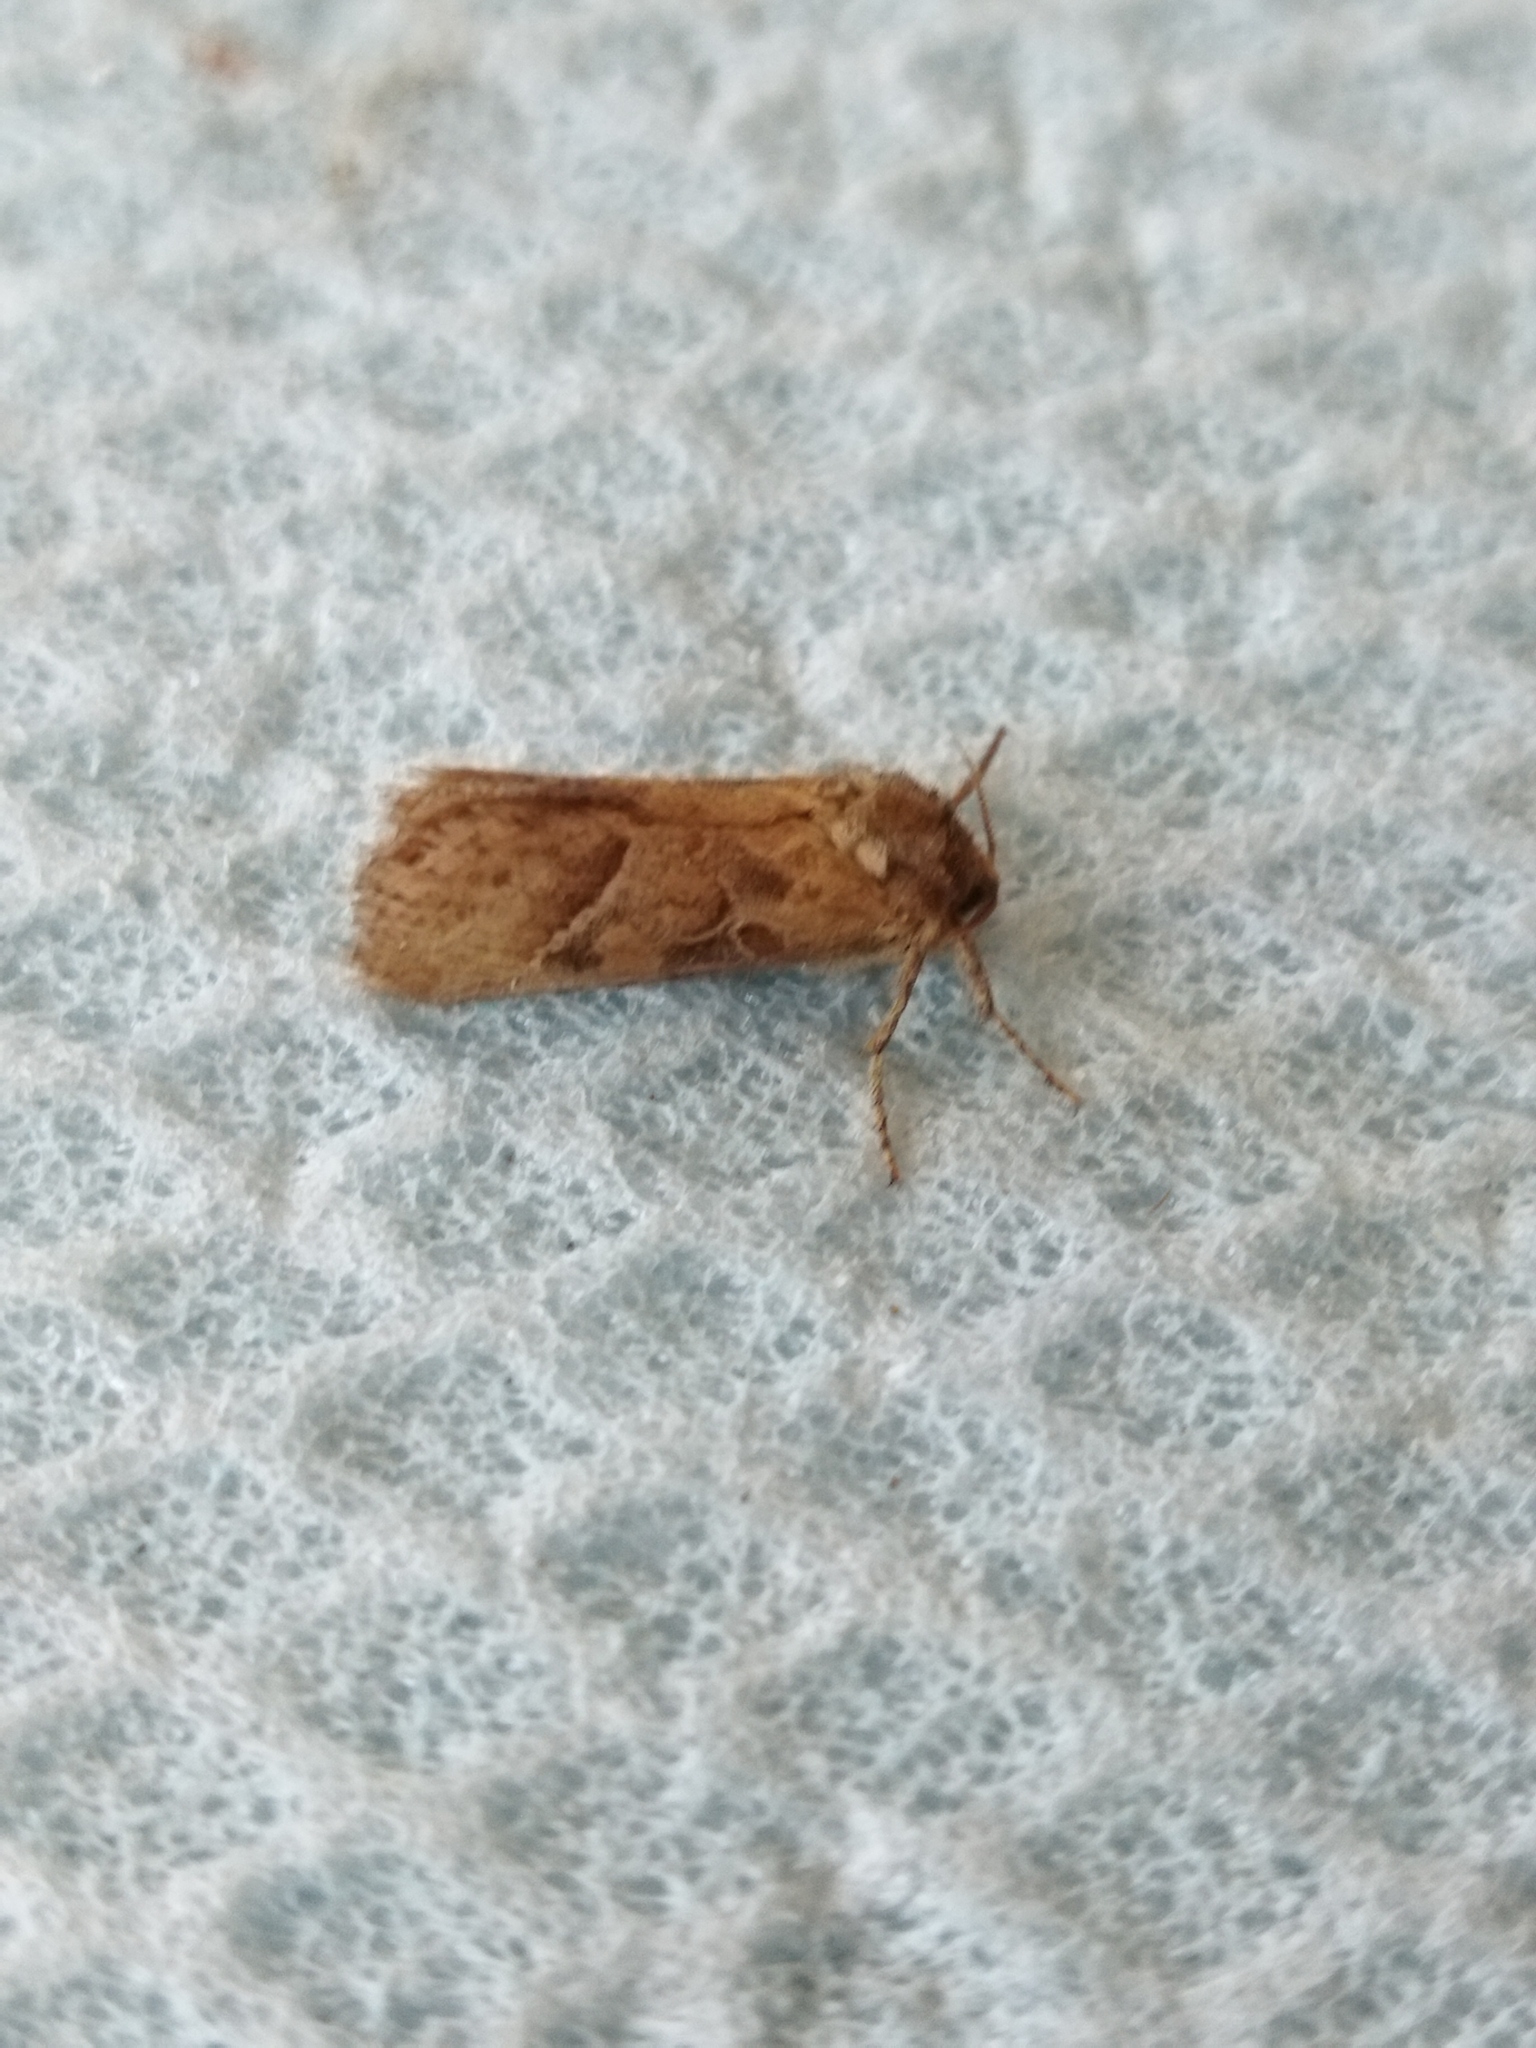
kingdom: Animalia
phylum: Arthropoda
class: Insecta
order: Lepidoptera
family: Hepialidae
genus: Triodia
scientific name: Triodia amasinus
